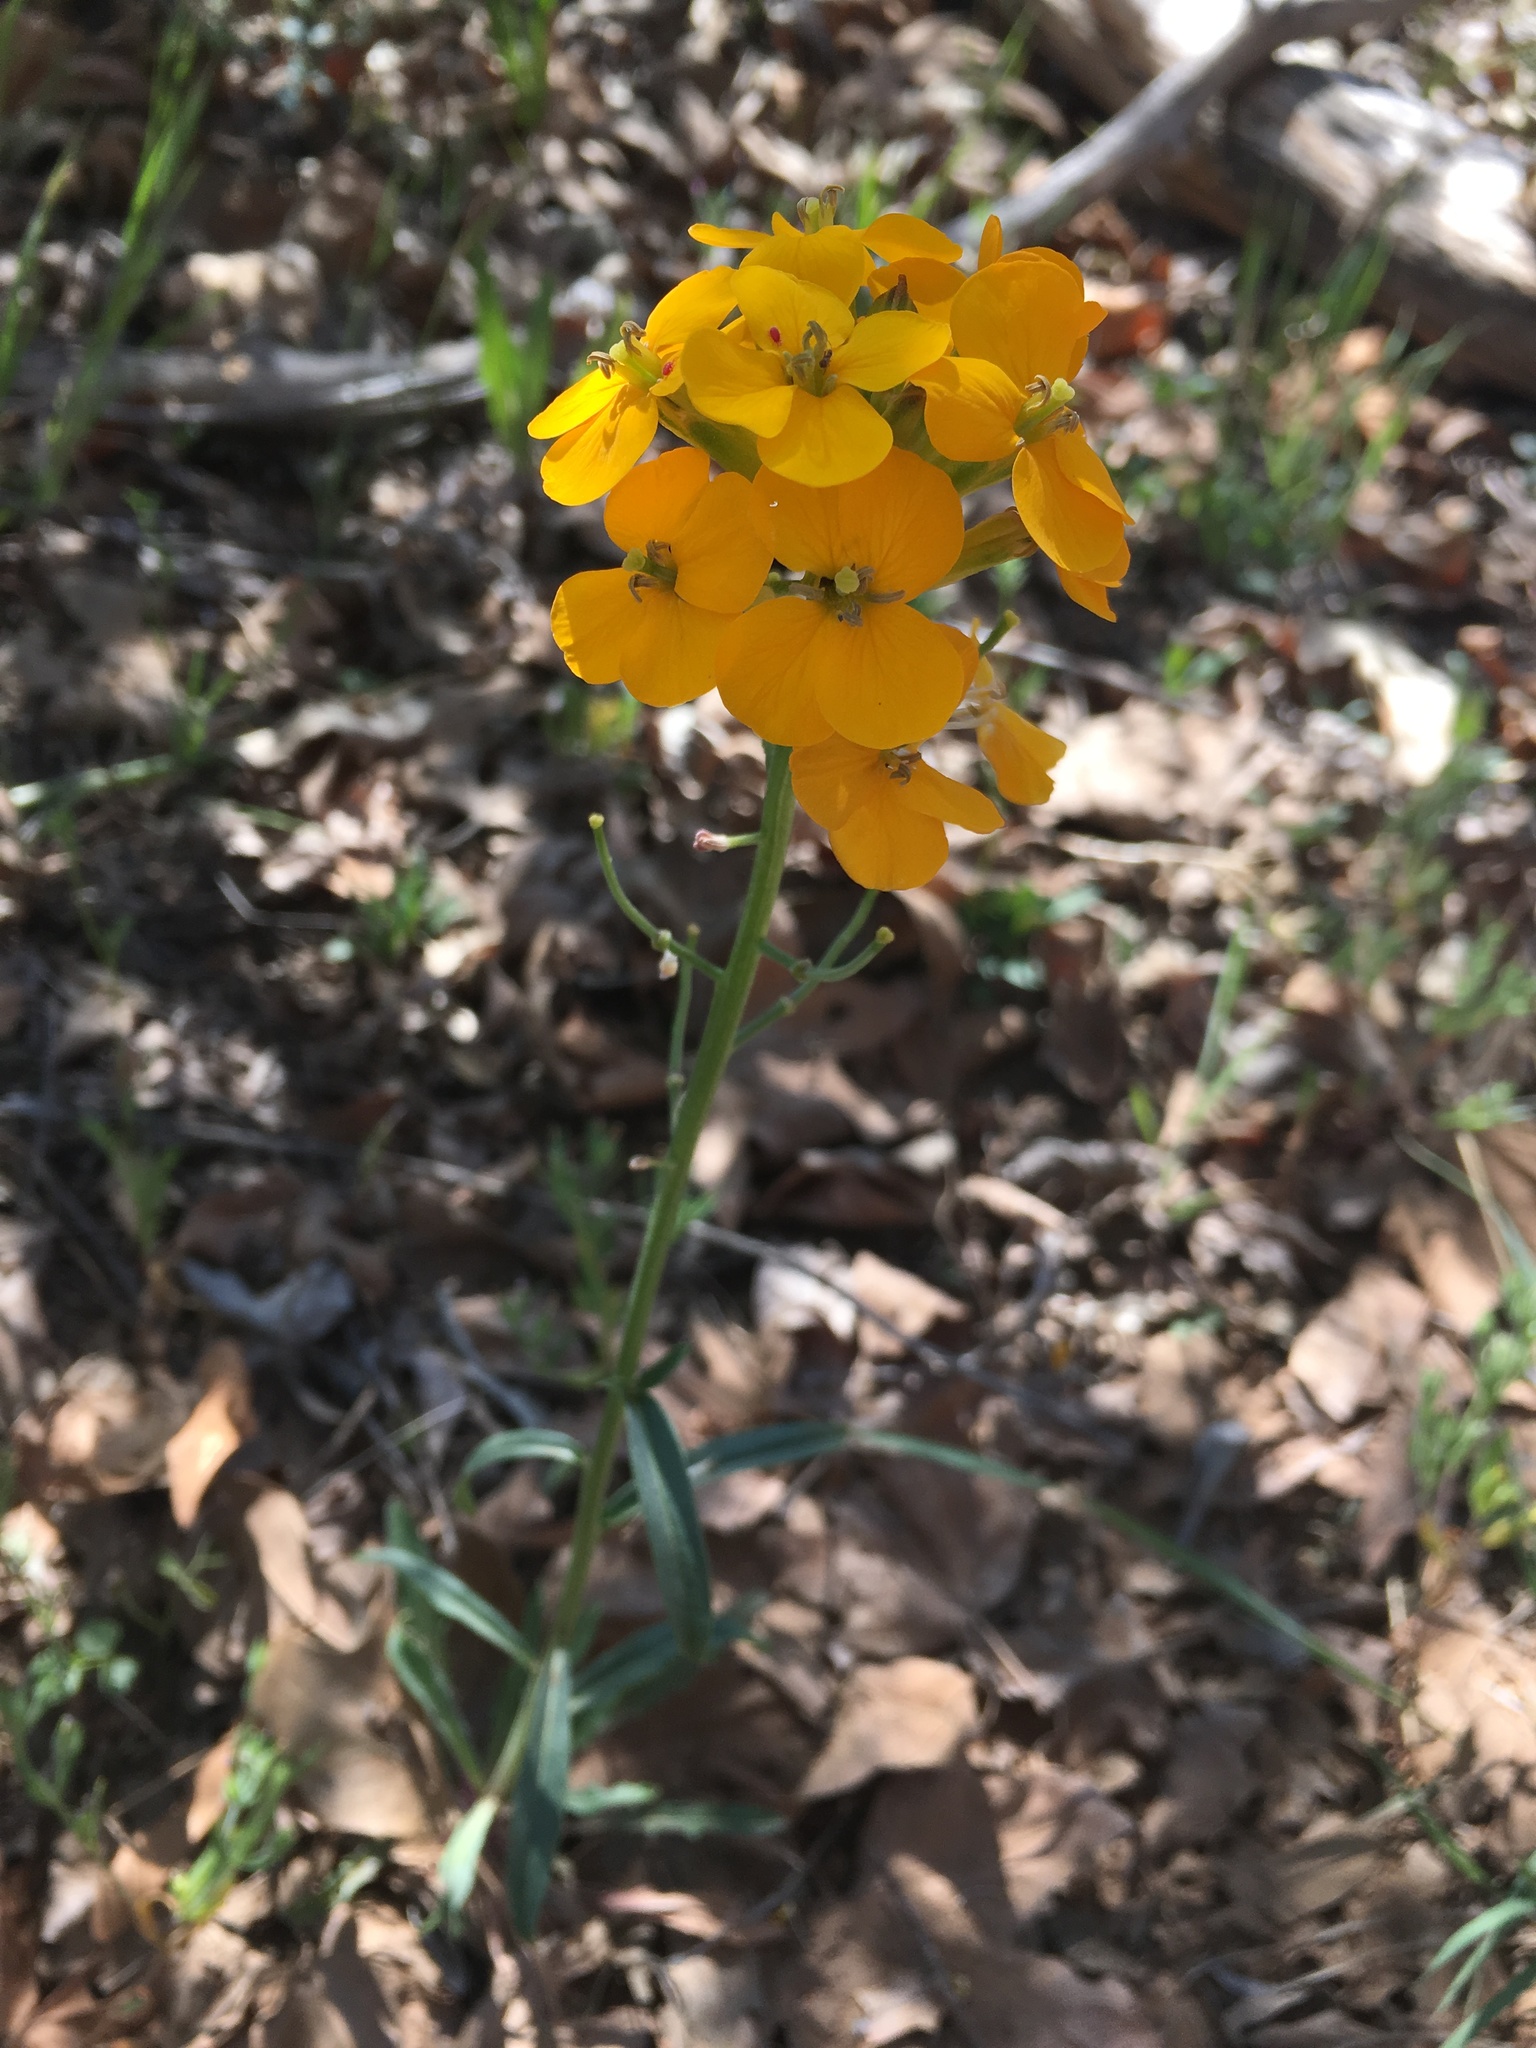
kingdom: Plantae
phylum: Tracheophyta
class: Magnoliopsida
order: Brassicales
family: Brassicaceae
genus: Erysimum
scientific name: Erysimum capitatum
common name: Western wallflower
